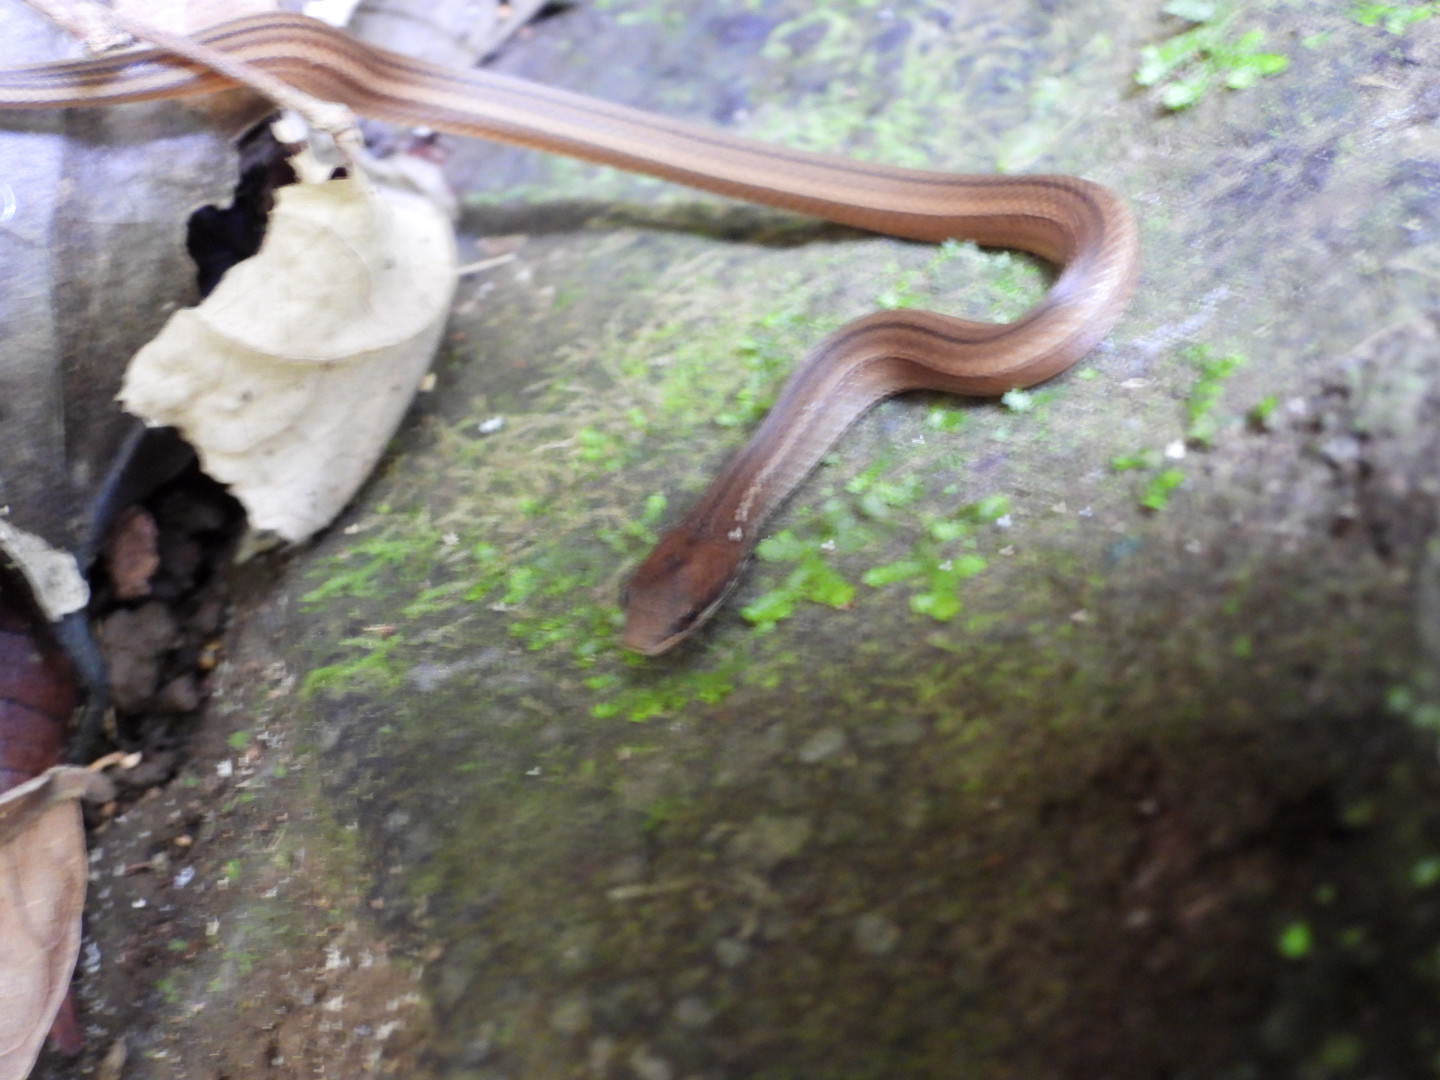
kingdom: Animalia
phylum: Chordata
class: Squamata
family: Colubridae
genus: Coniophanes
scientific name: Coniophanes imperialis
